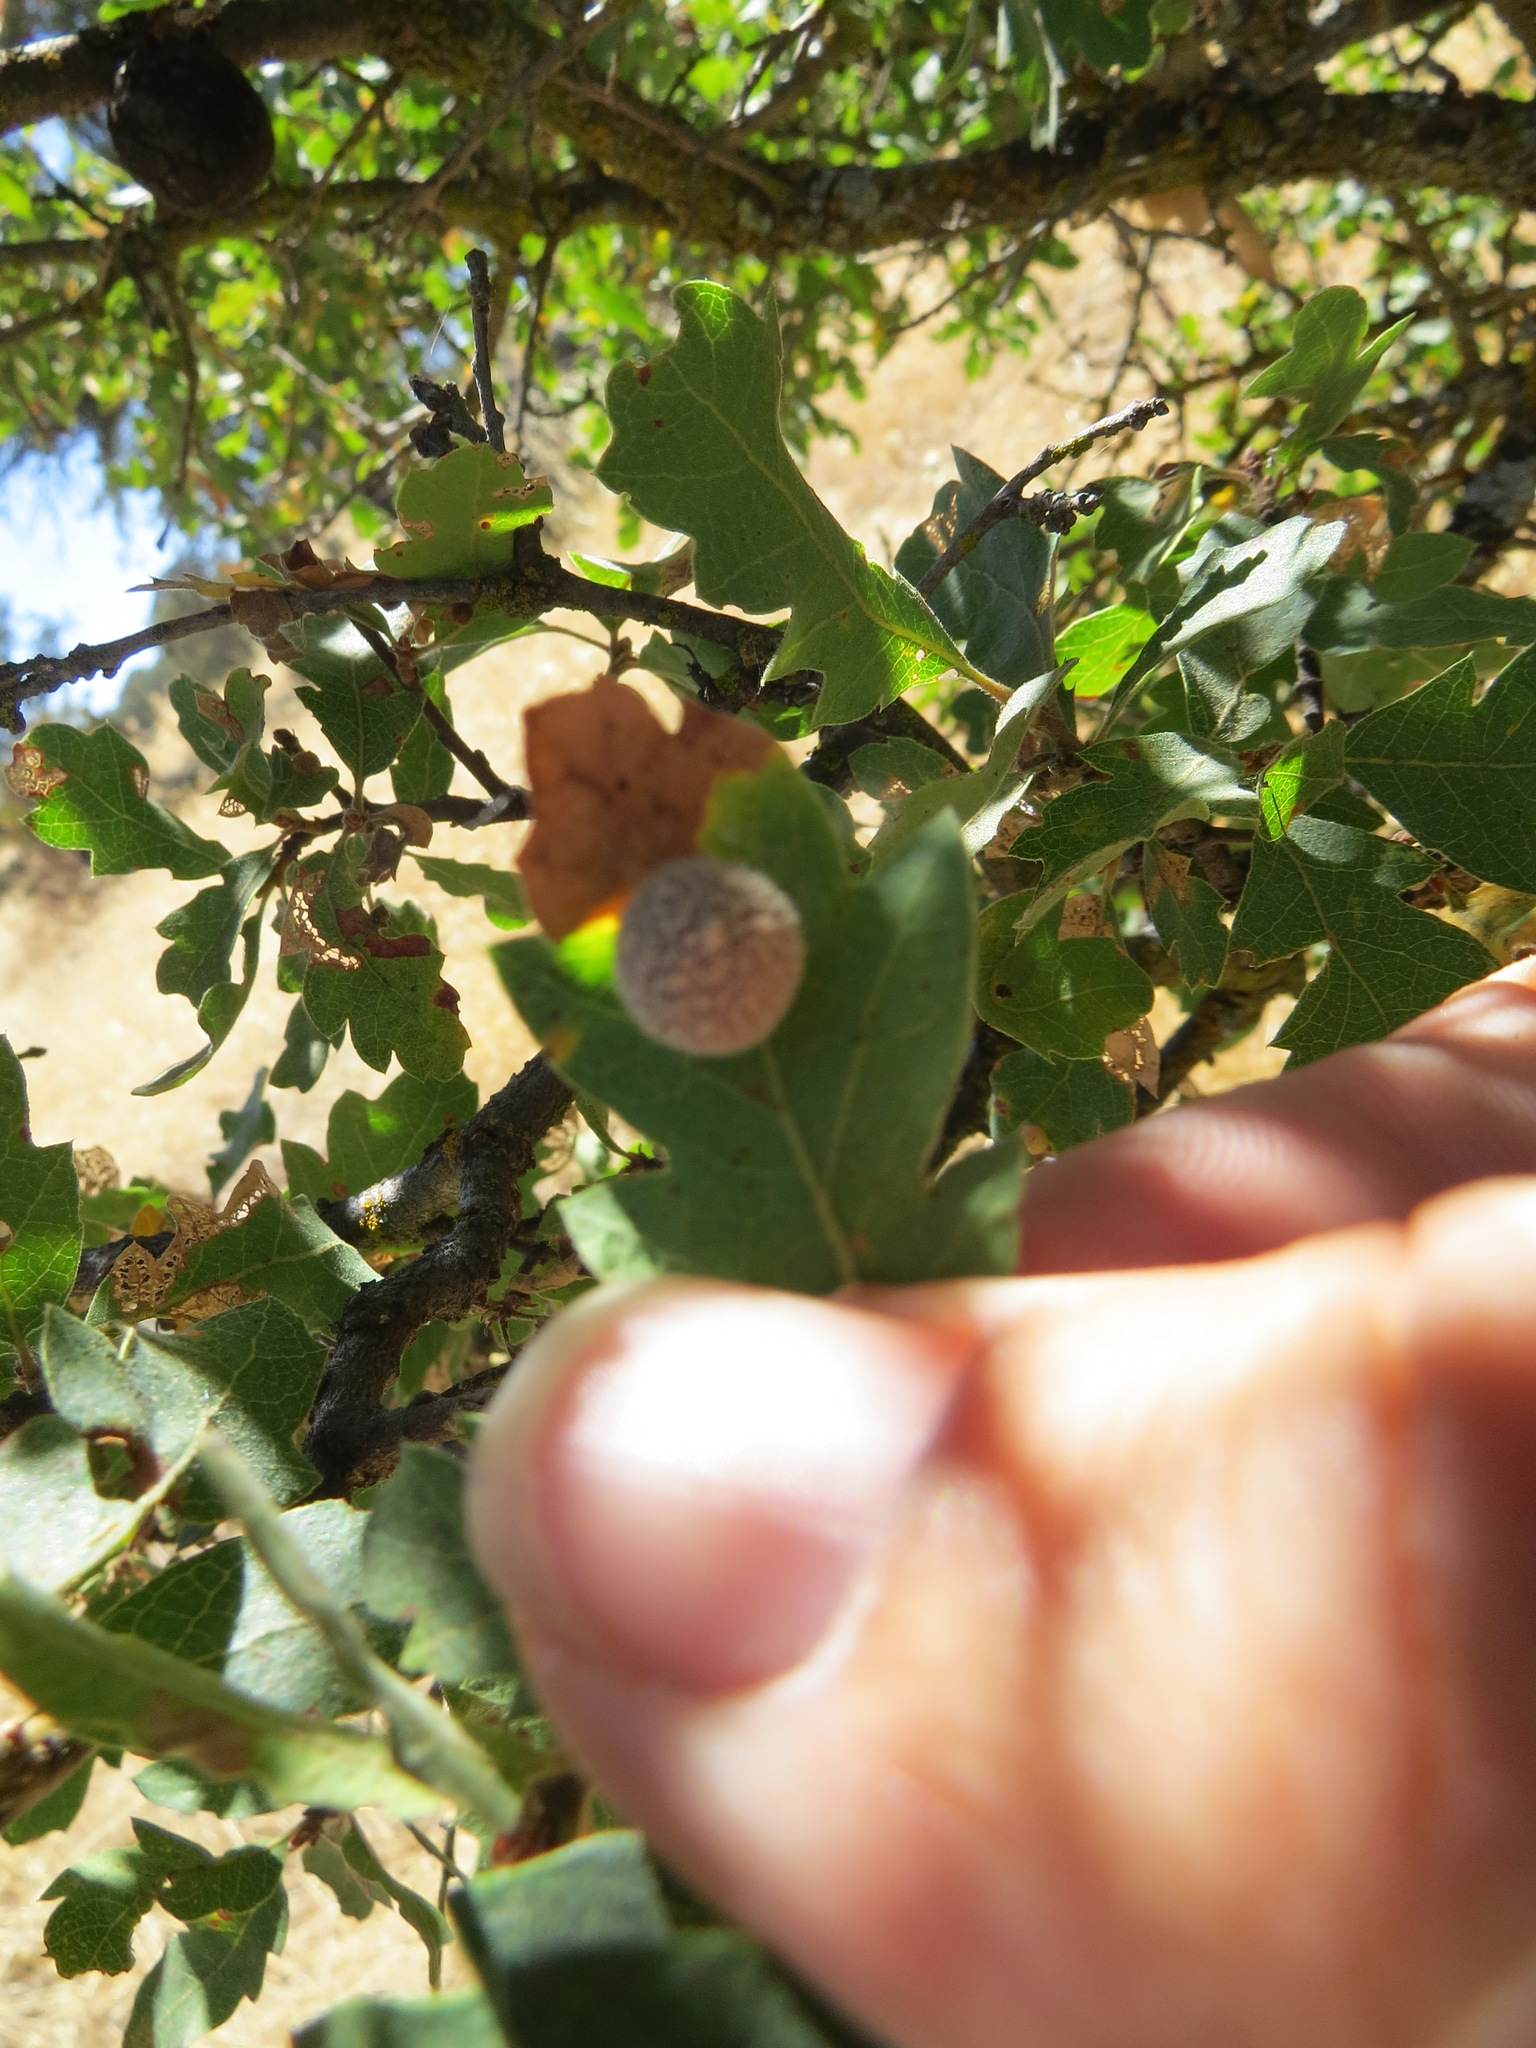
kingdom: Animalia
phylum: Arthropoda
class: Insecta
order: Hymenoptera
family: Cynipidae
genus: Cynips
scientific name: Cynips
